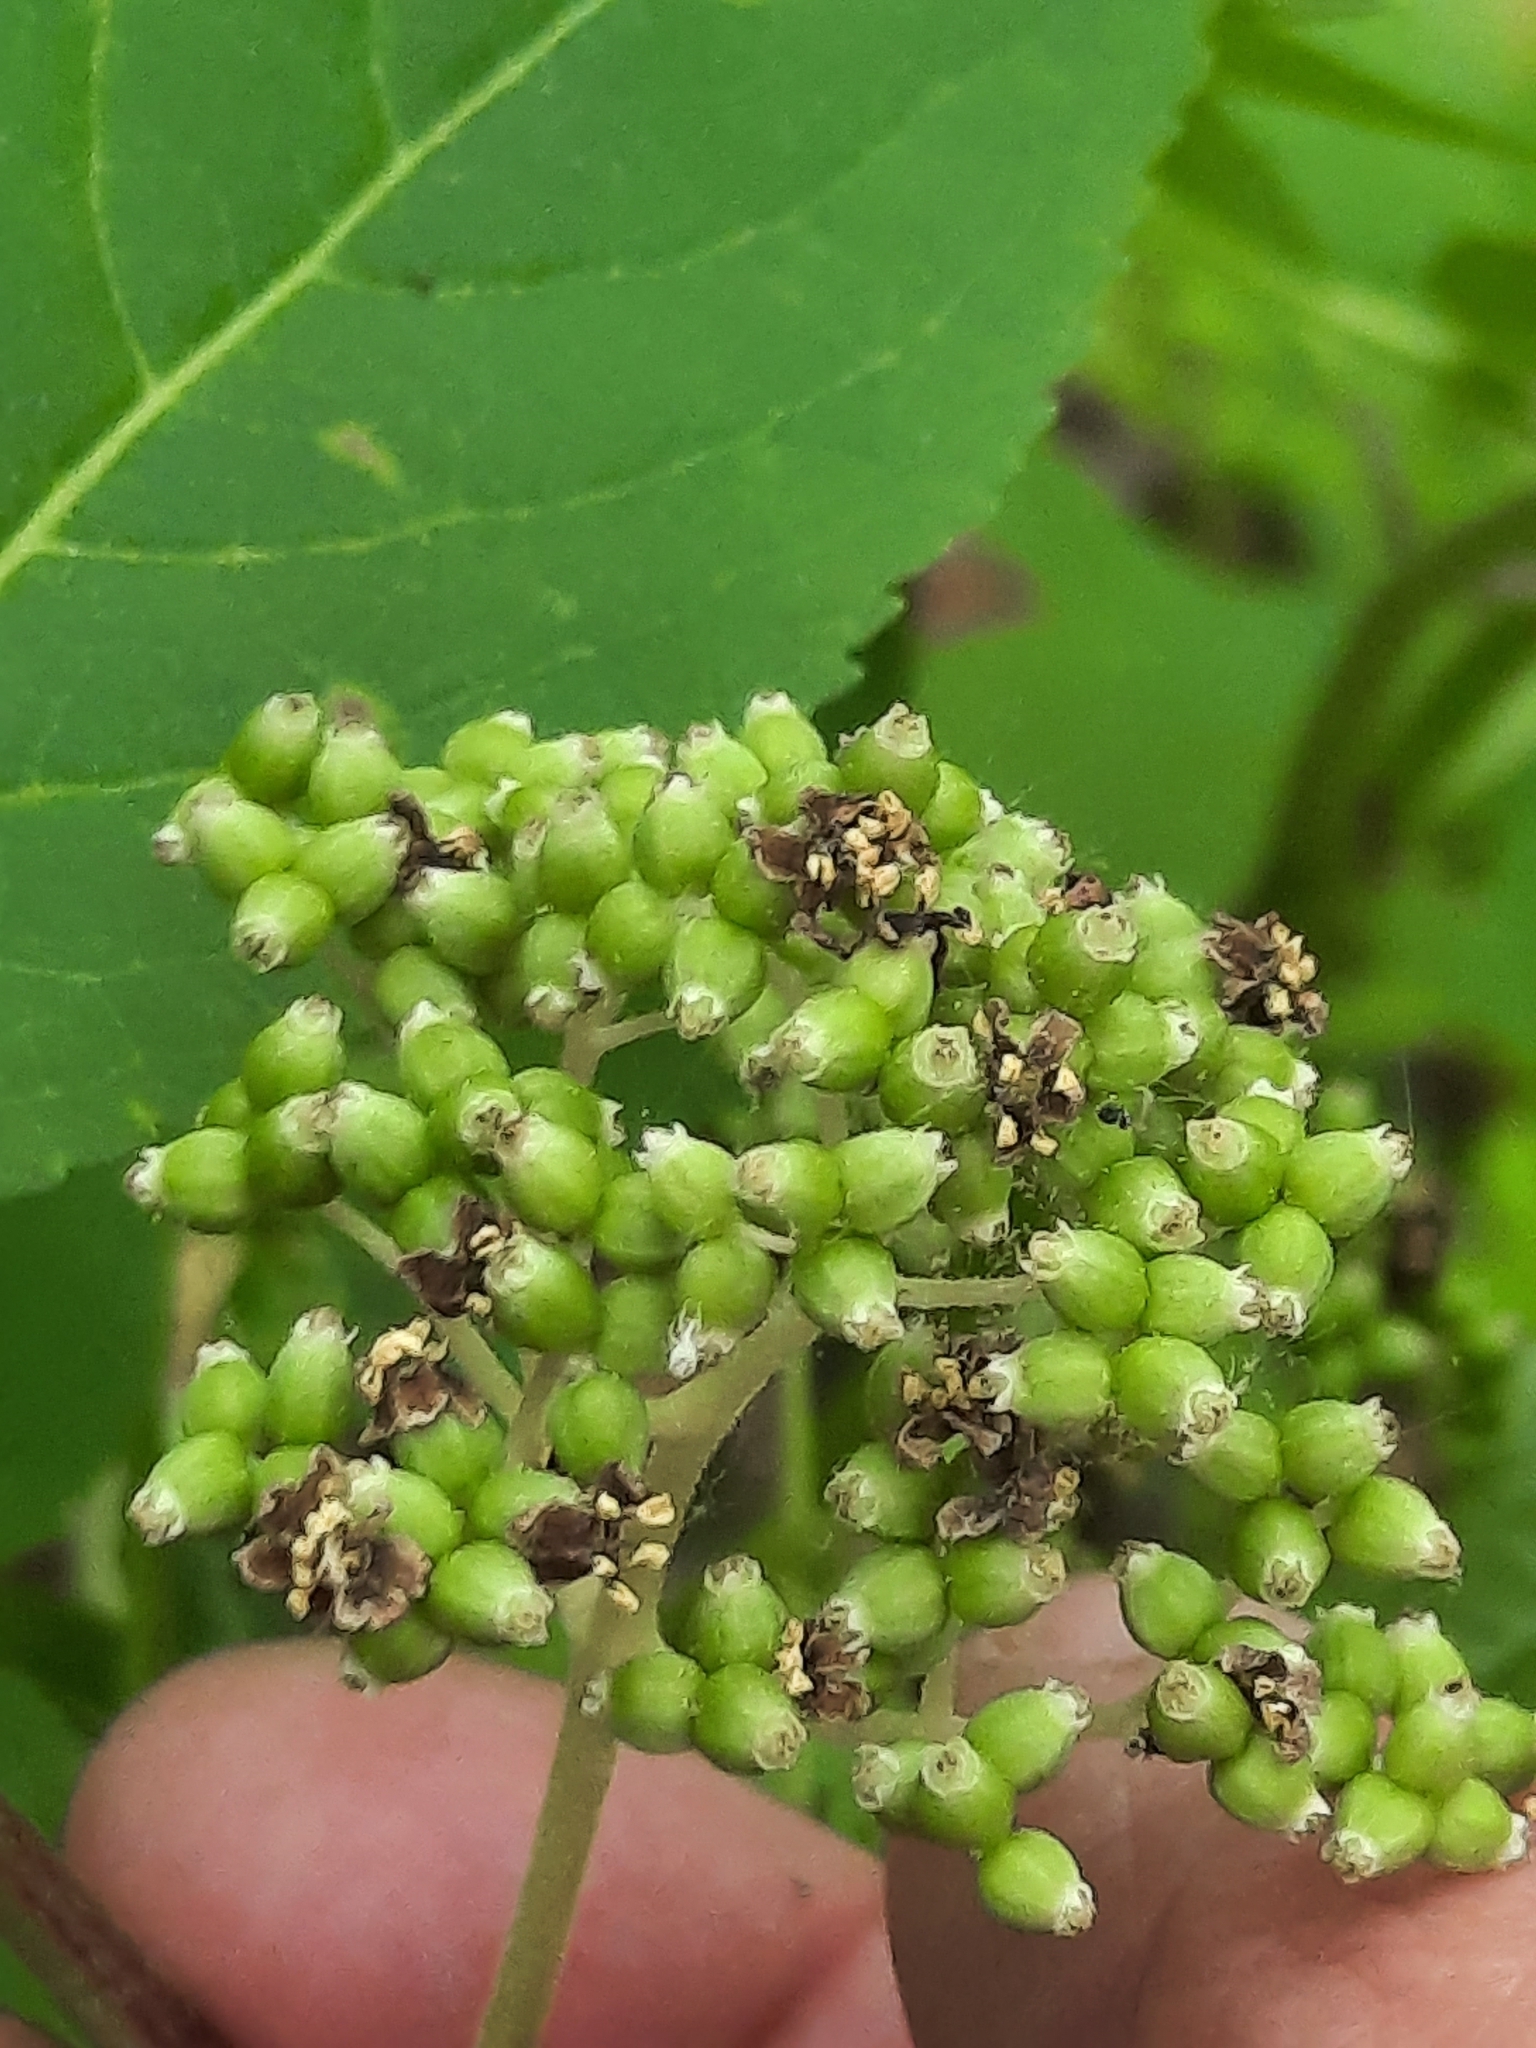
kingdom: Plantae
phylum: Tracheophyta
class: Magnoliopsida
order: Dipsacales
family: Viburnaceae
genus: Sambucus
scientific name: Sambucus racemosa
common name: Red-berried elder
